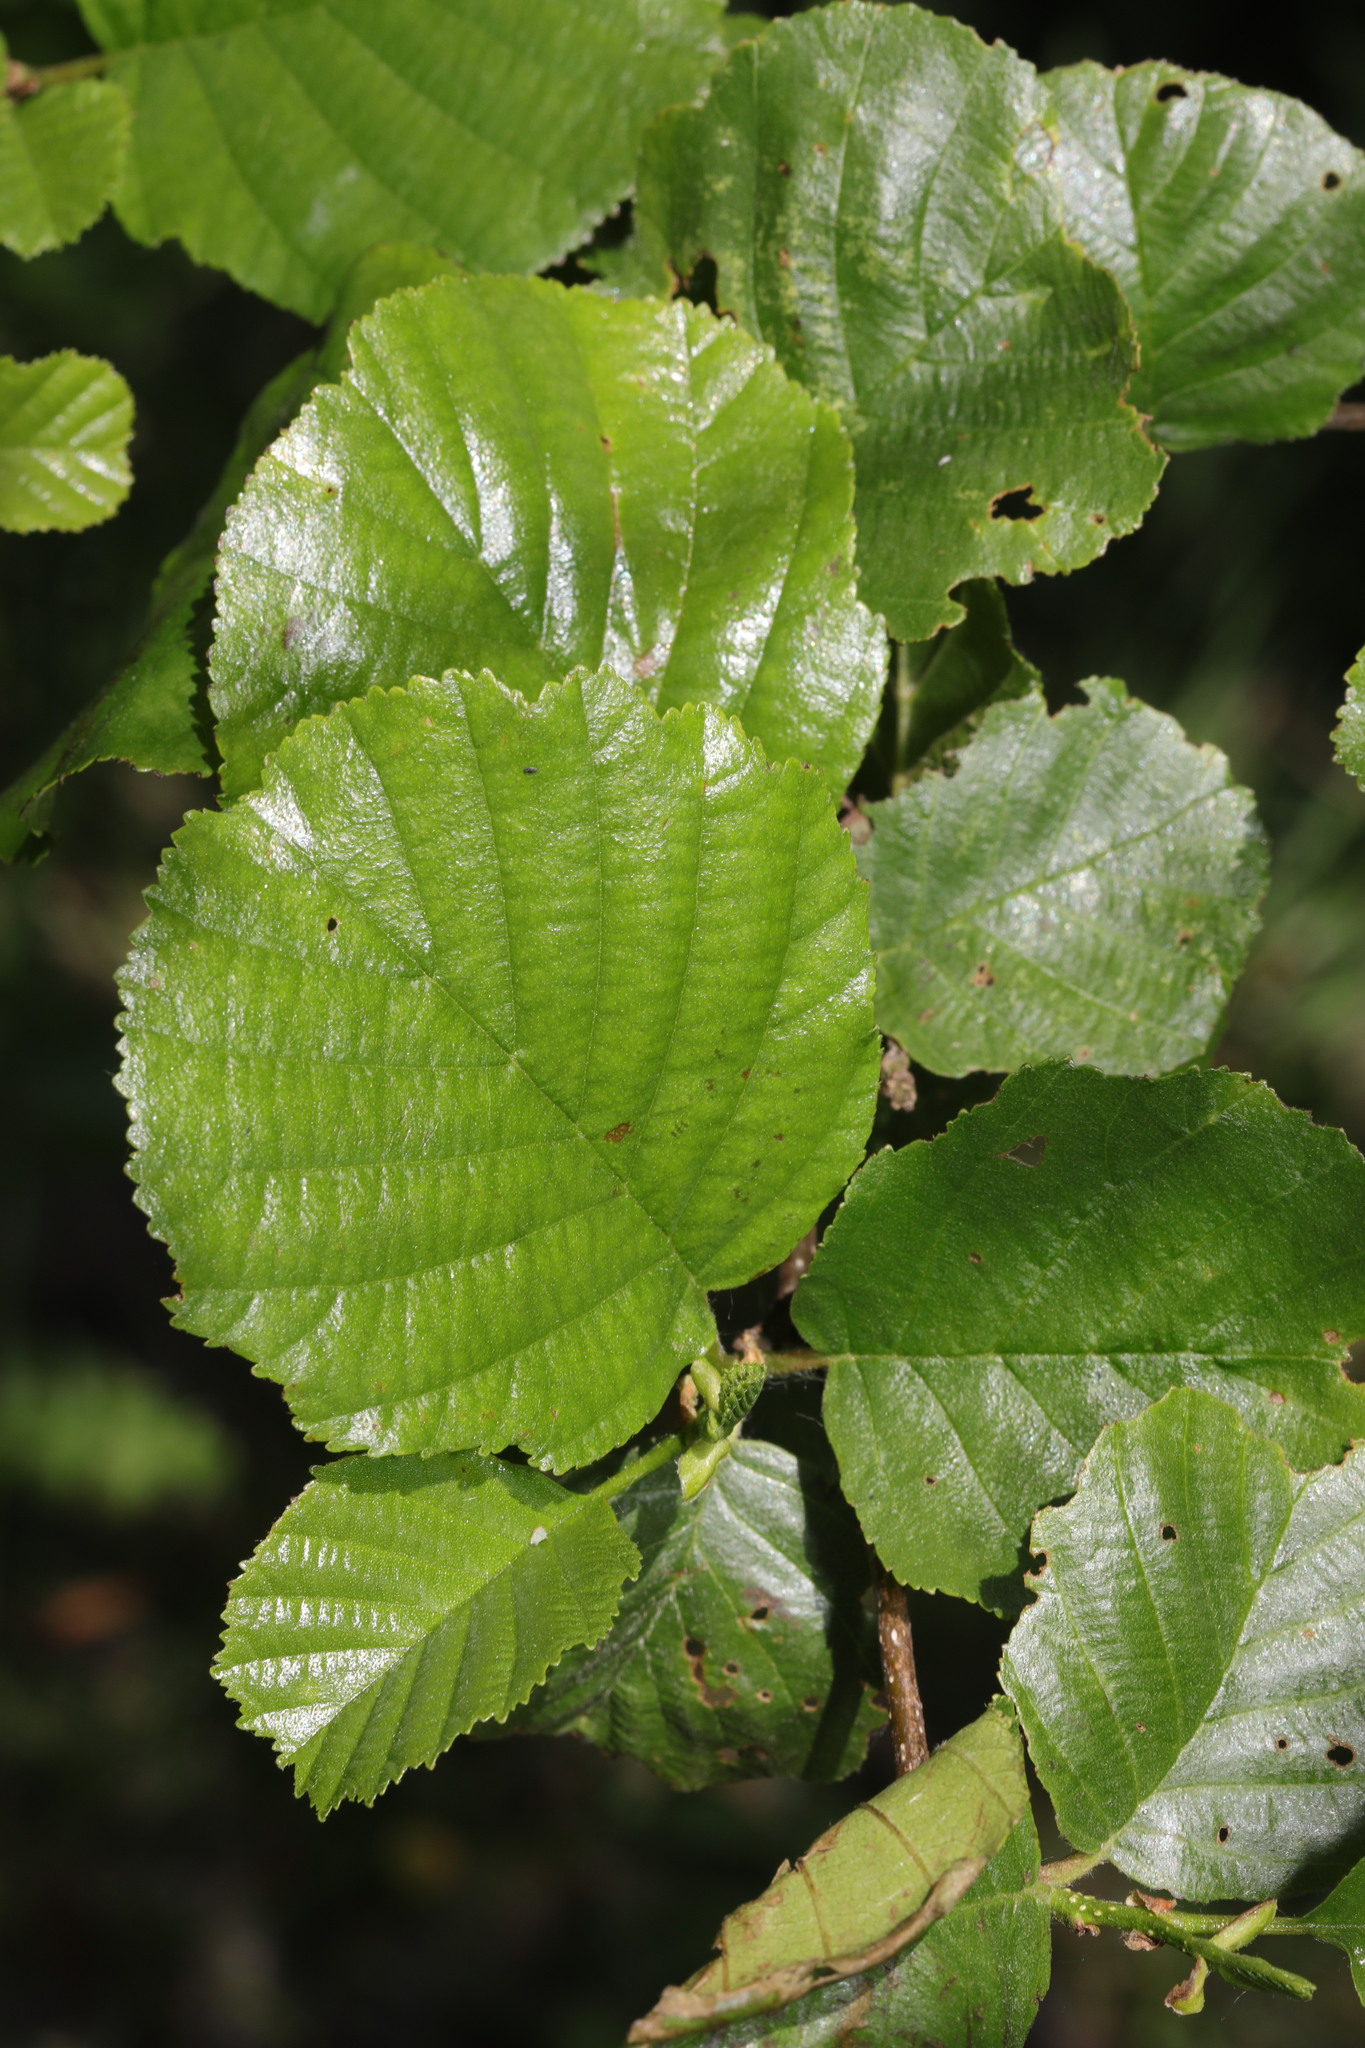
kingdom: Plantae
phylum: Tracheophyta
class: Magnoliopsida
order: Fagales
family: Betulaceae
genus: Alnus
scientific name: Alnus glutinosa
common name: Black alder
